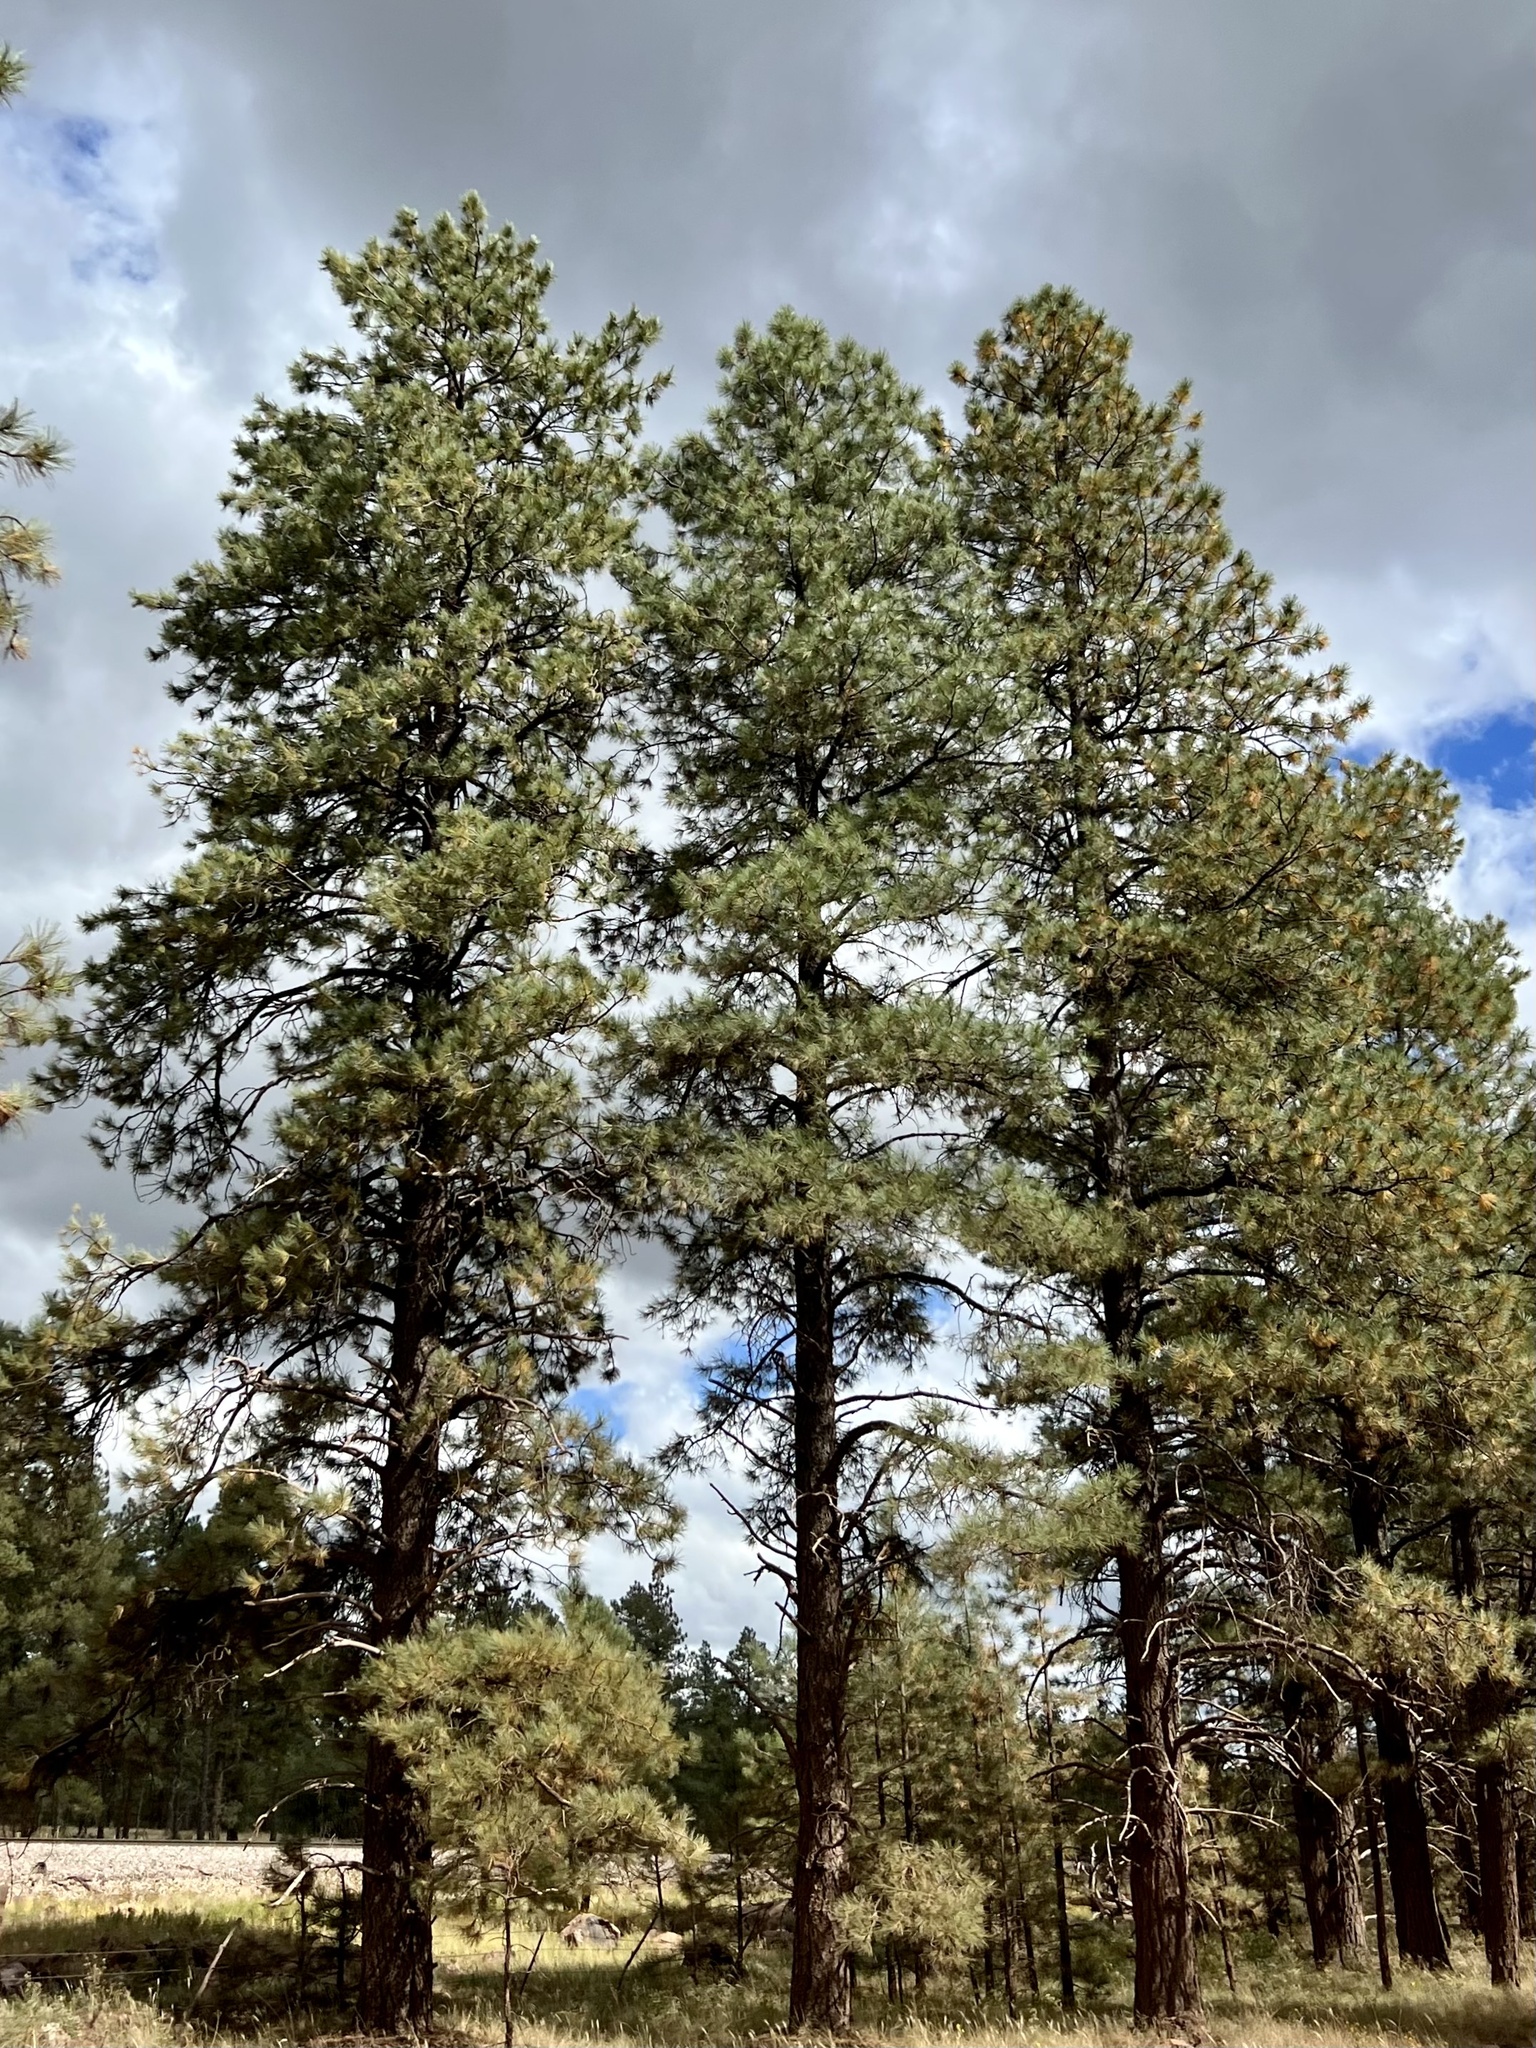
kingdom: Plantae
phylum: Tracheophyta
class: Pinopsida
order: Pinales
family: Pinaceae
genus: Pinus
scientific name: Pinus ponderosa
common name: Western yellow-pine
